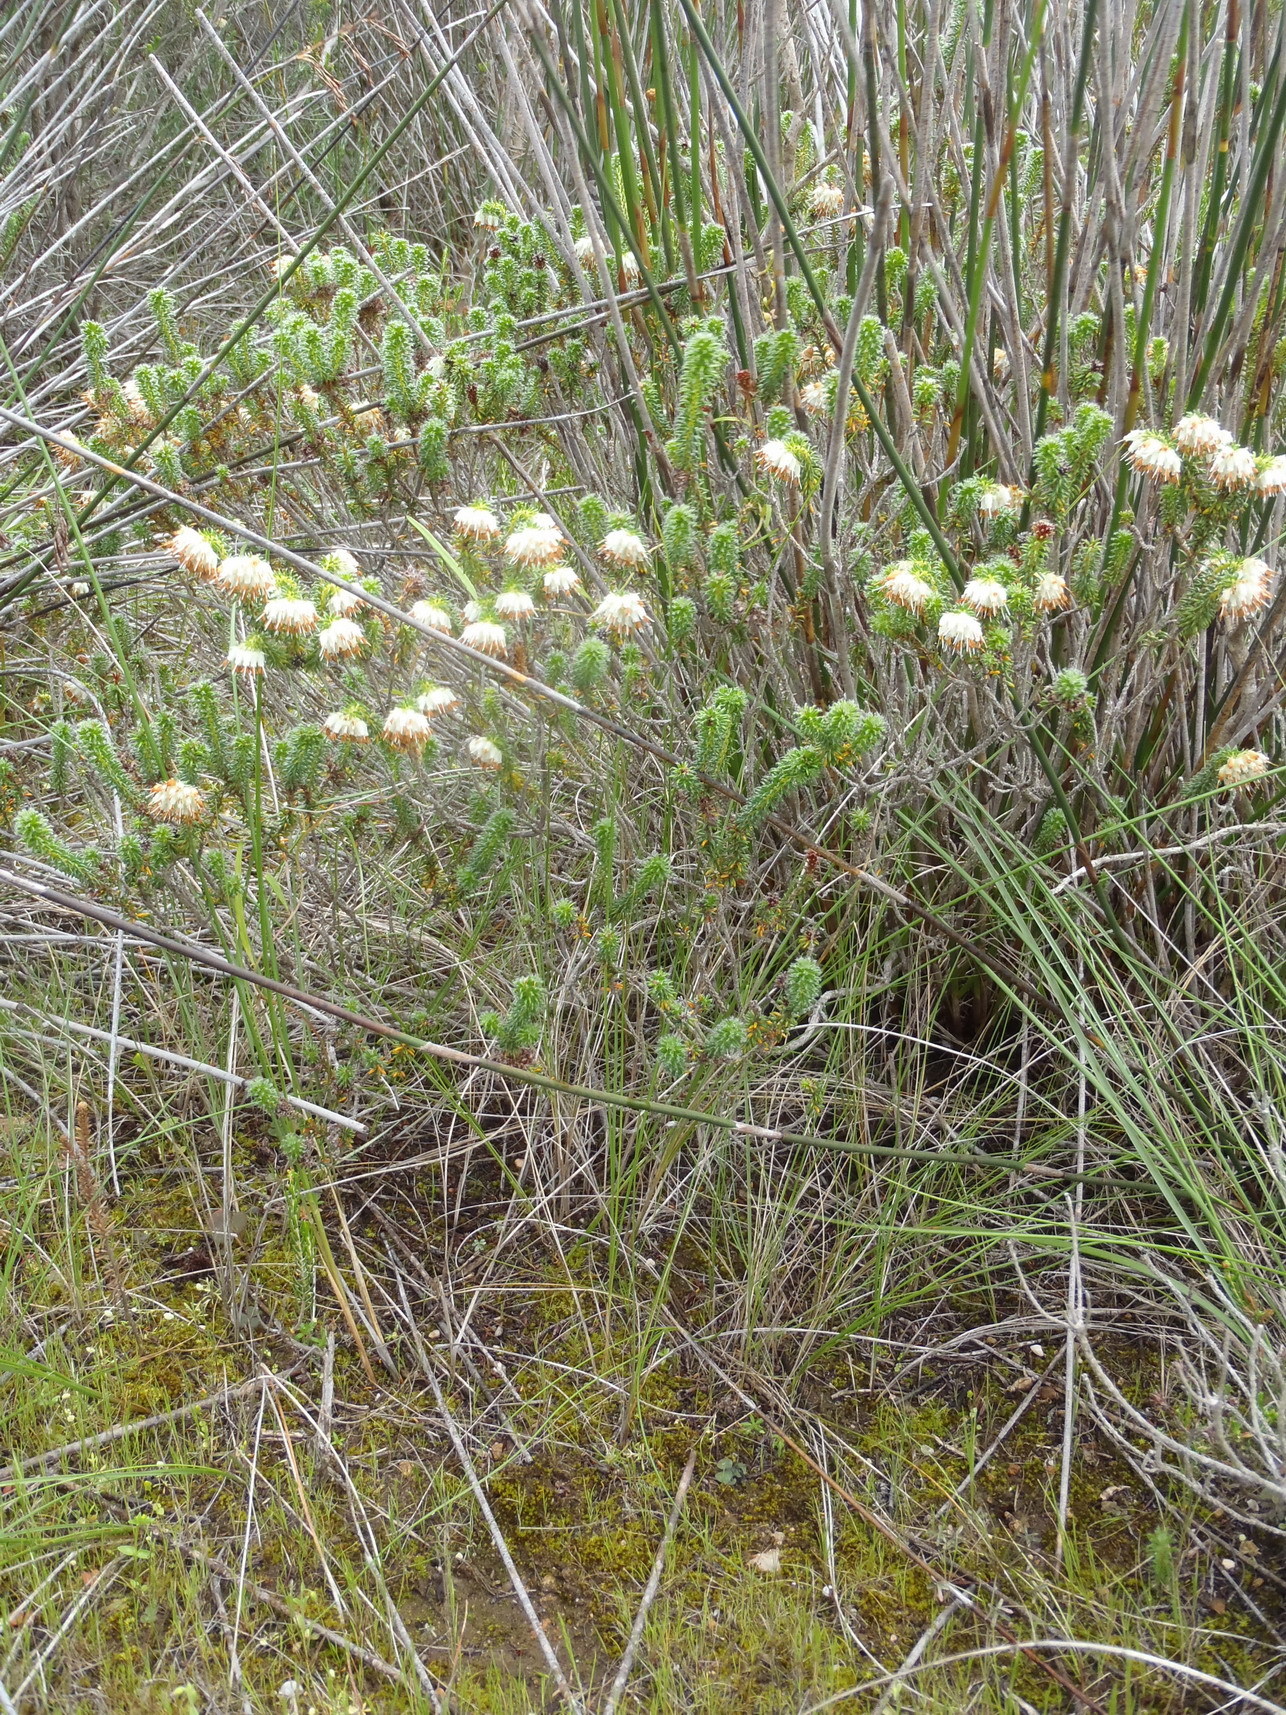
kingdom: Plantae
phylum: Tracheophyta
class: Magnoliopsida
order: Ericales
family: Ericaceae
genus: Erica
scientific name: Erica bruniifolia
